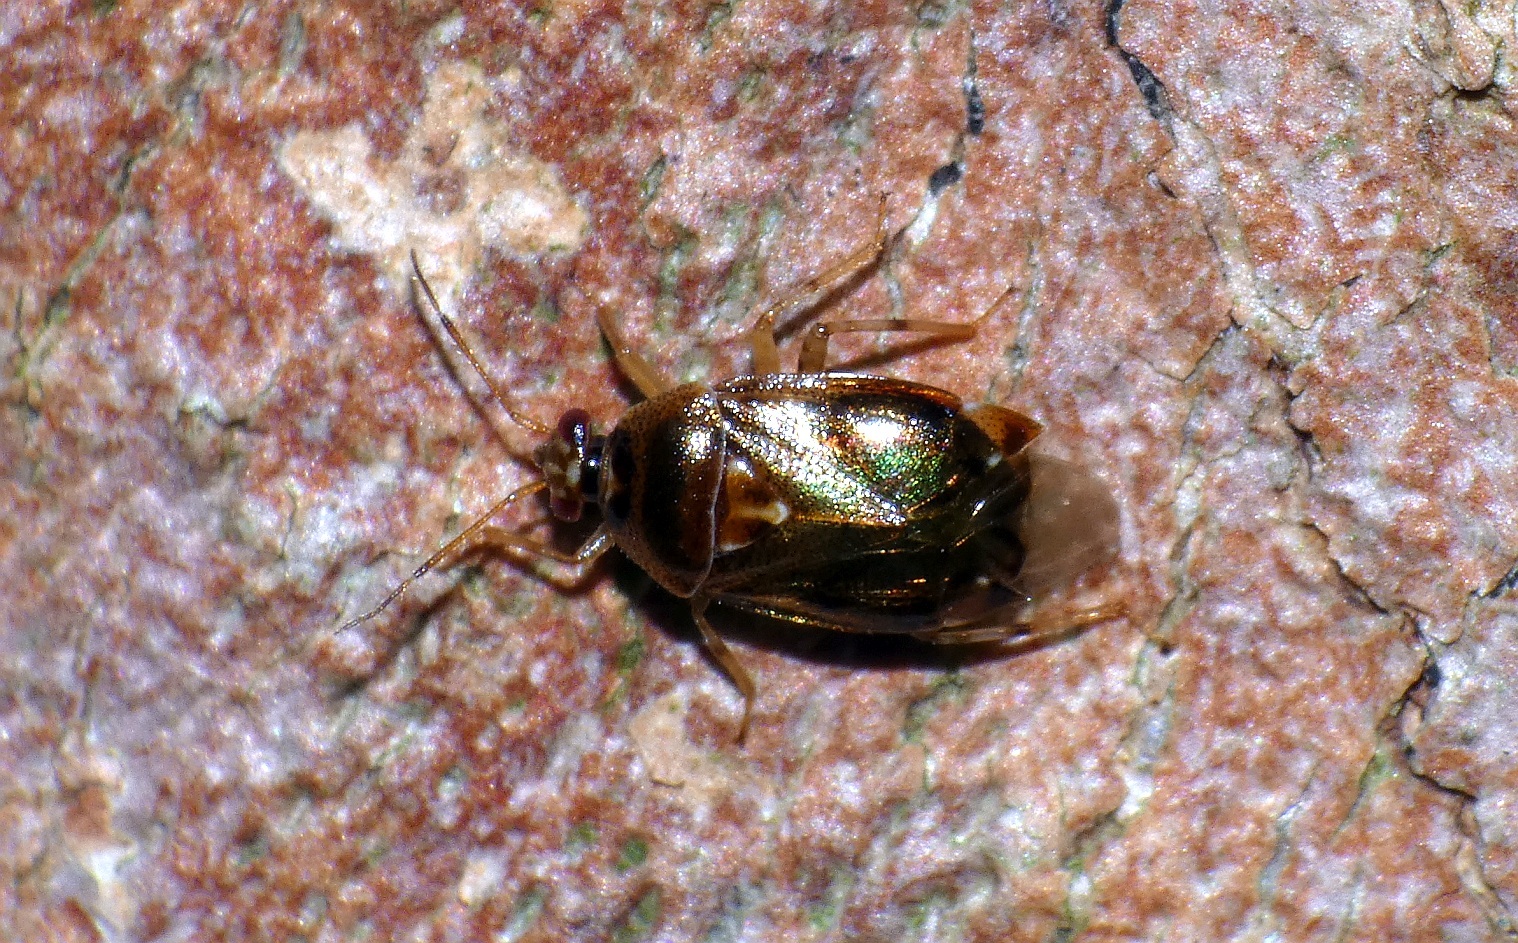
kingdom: Animalia
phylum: Arthropoda
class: Insecta
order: Hemiptera
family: Miridae
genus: Deraeocoris
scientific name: Deraeocoris lutescens
